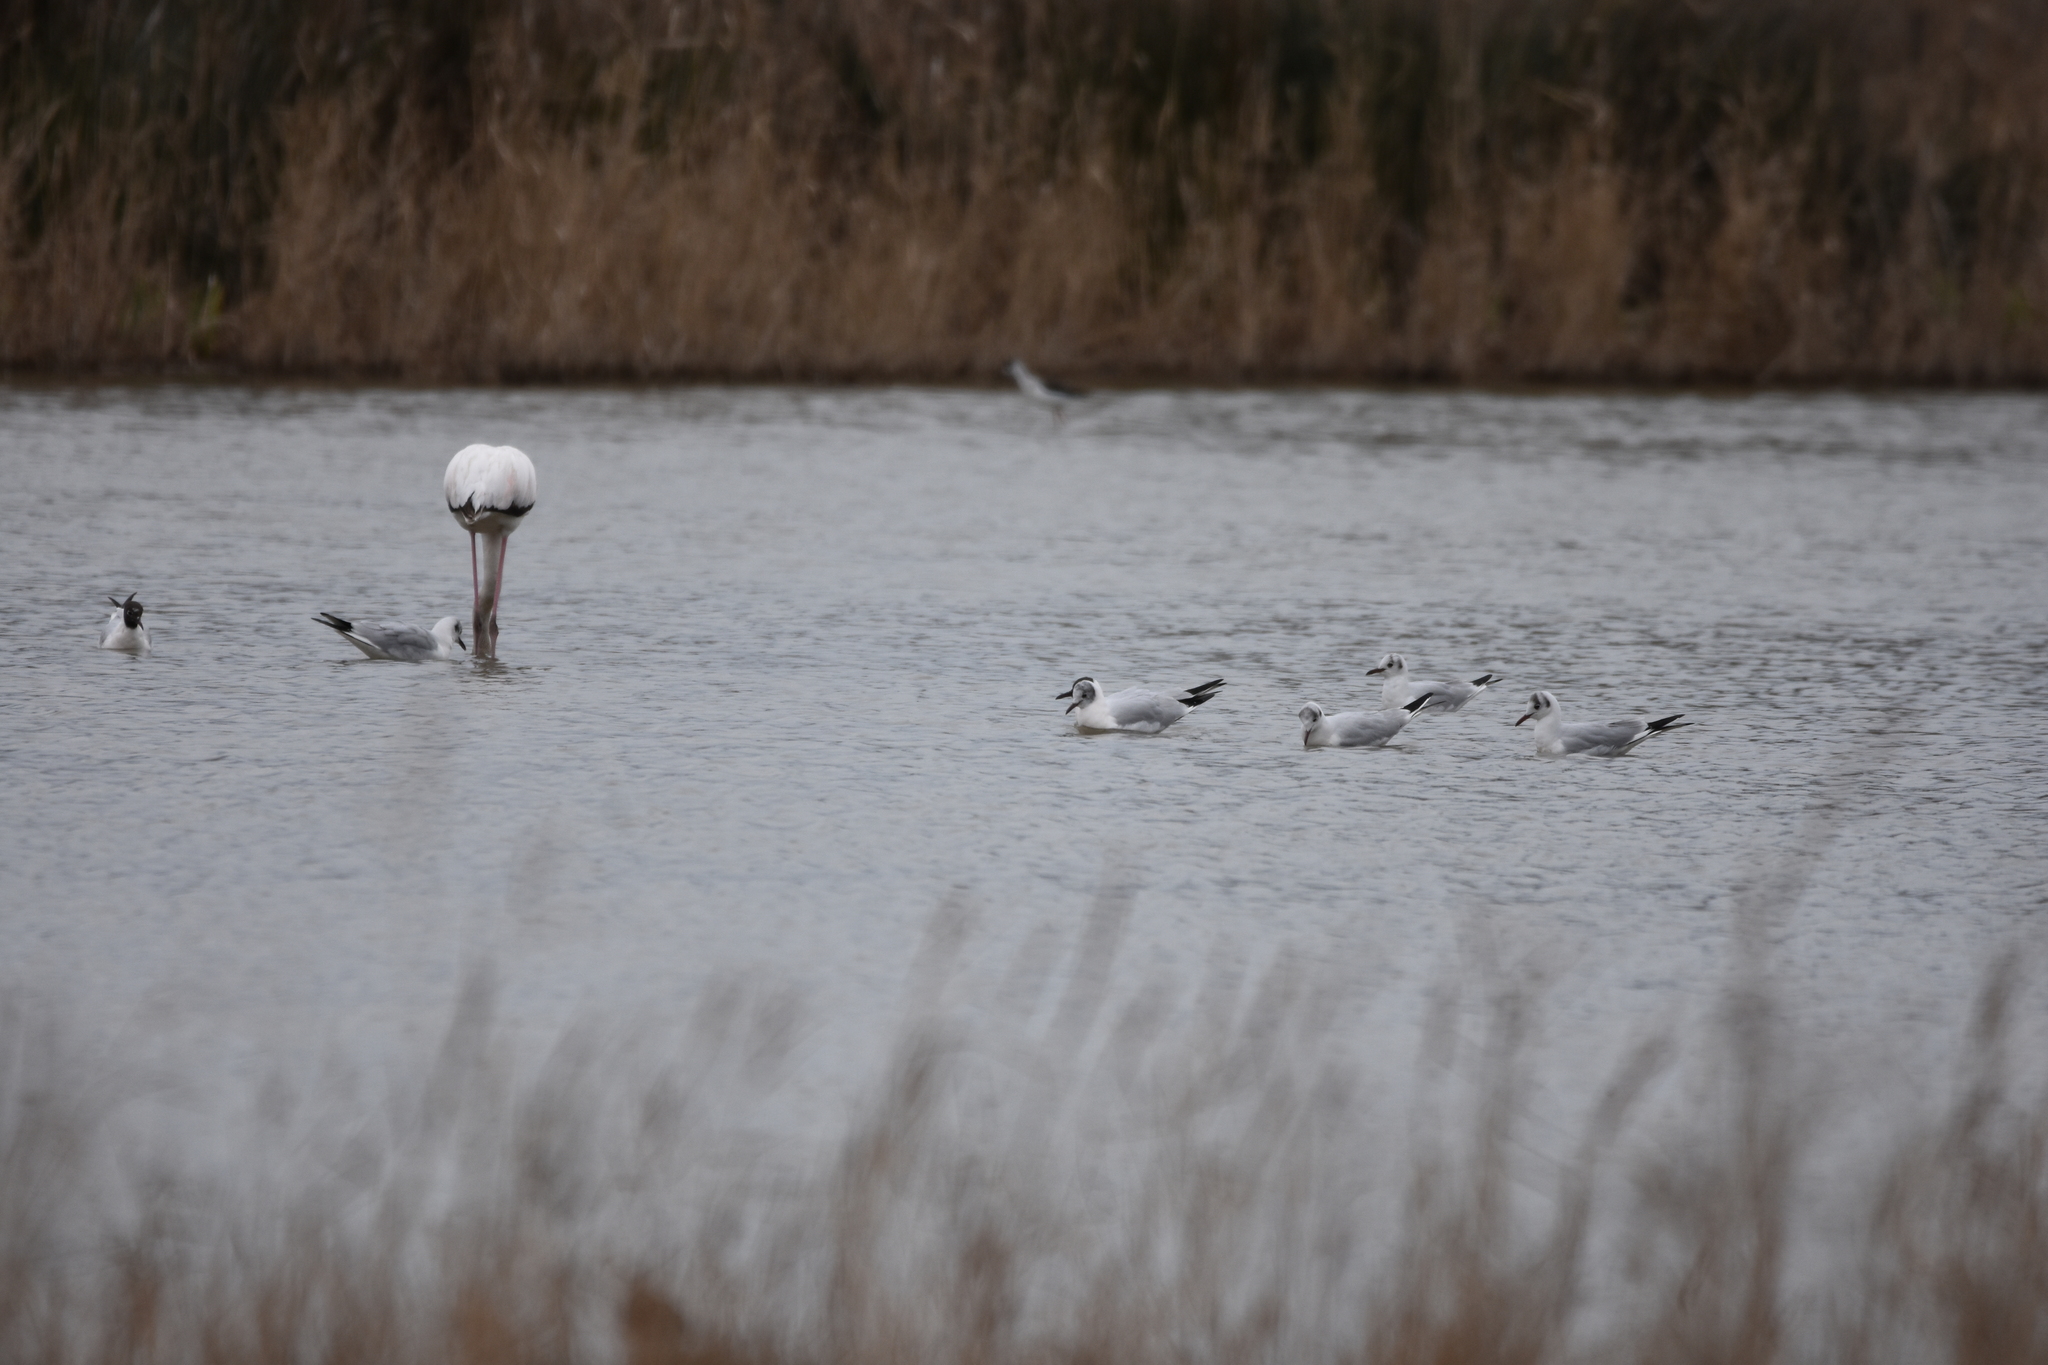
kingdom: Animalia
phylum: Chordata
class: Aves
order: Charadriiformes
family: Laridae
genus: Chroicocephalus
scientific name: Chroicocephalus ridibundus
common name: Black-headed gull
